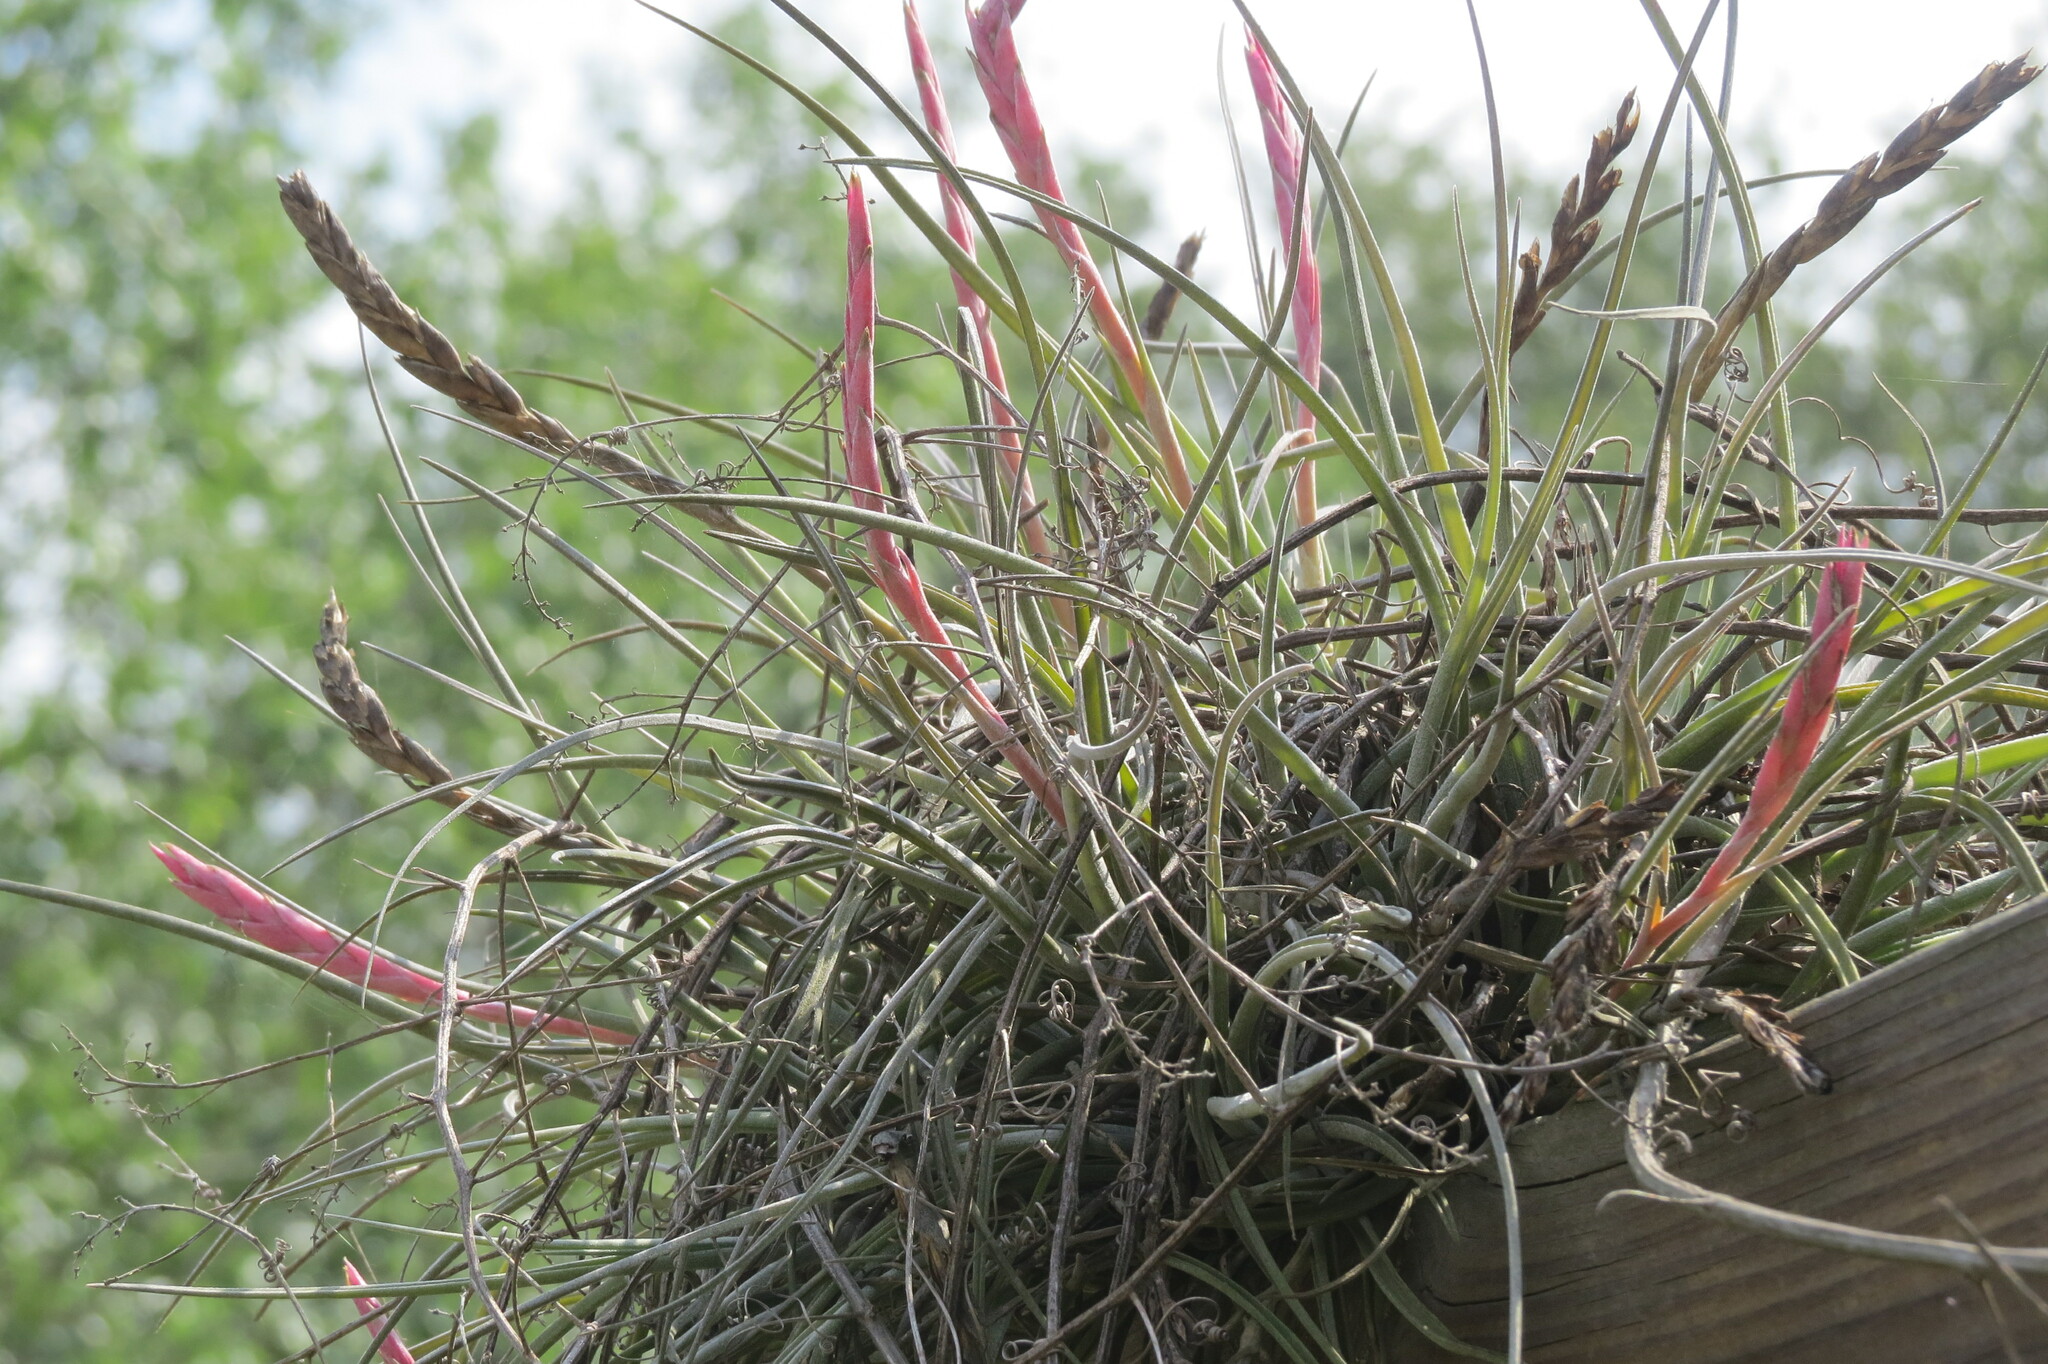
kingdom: Plantae
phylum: Tracheophyta
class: Liliopsida
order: Poales
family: Bromeliaceae
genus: Tillandsia
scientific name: Tillandsia baileyi
